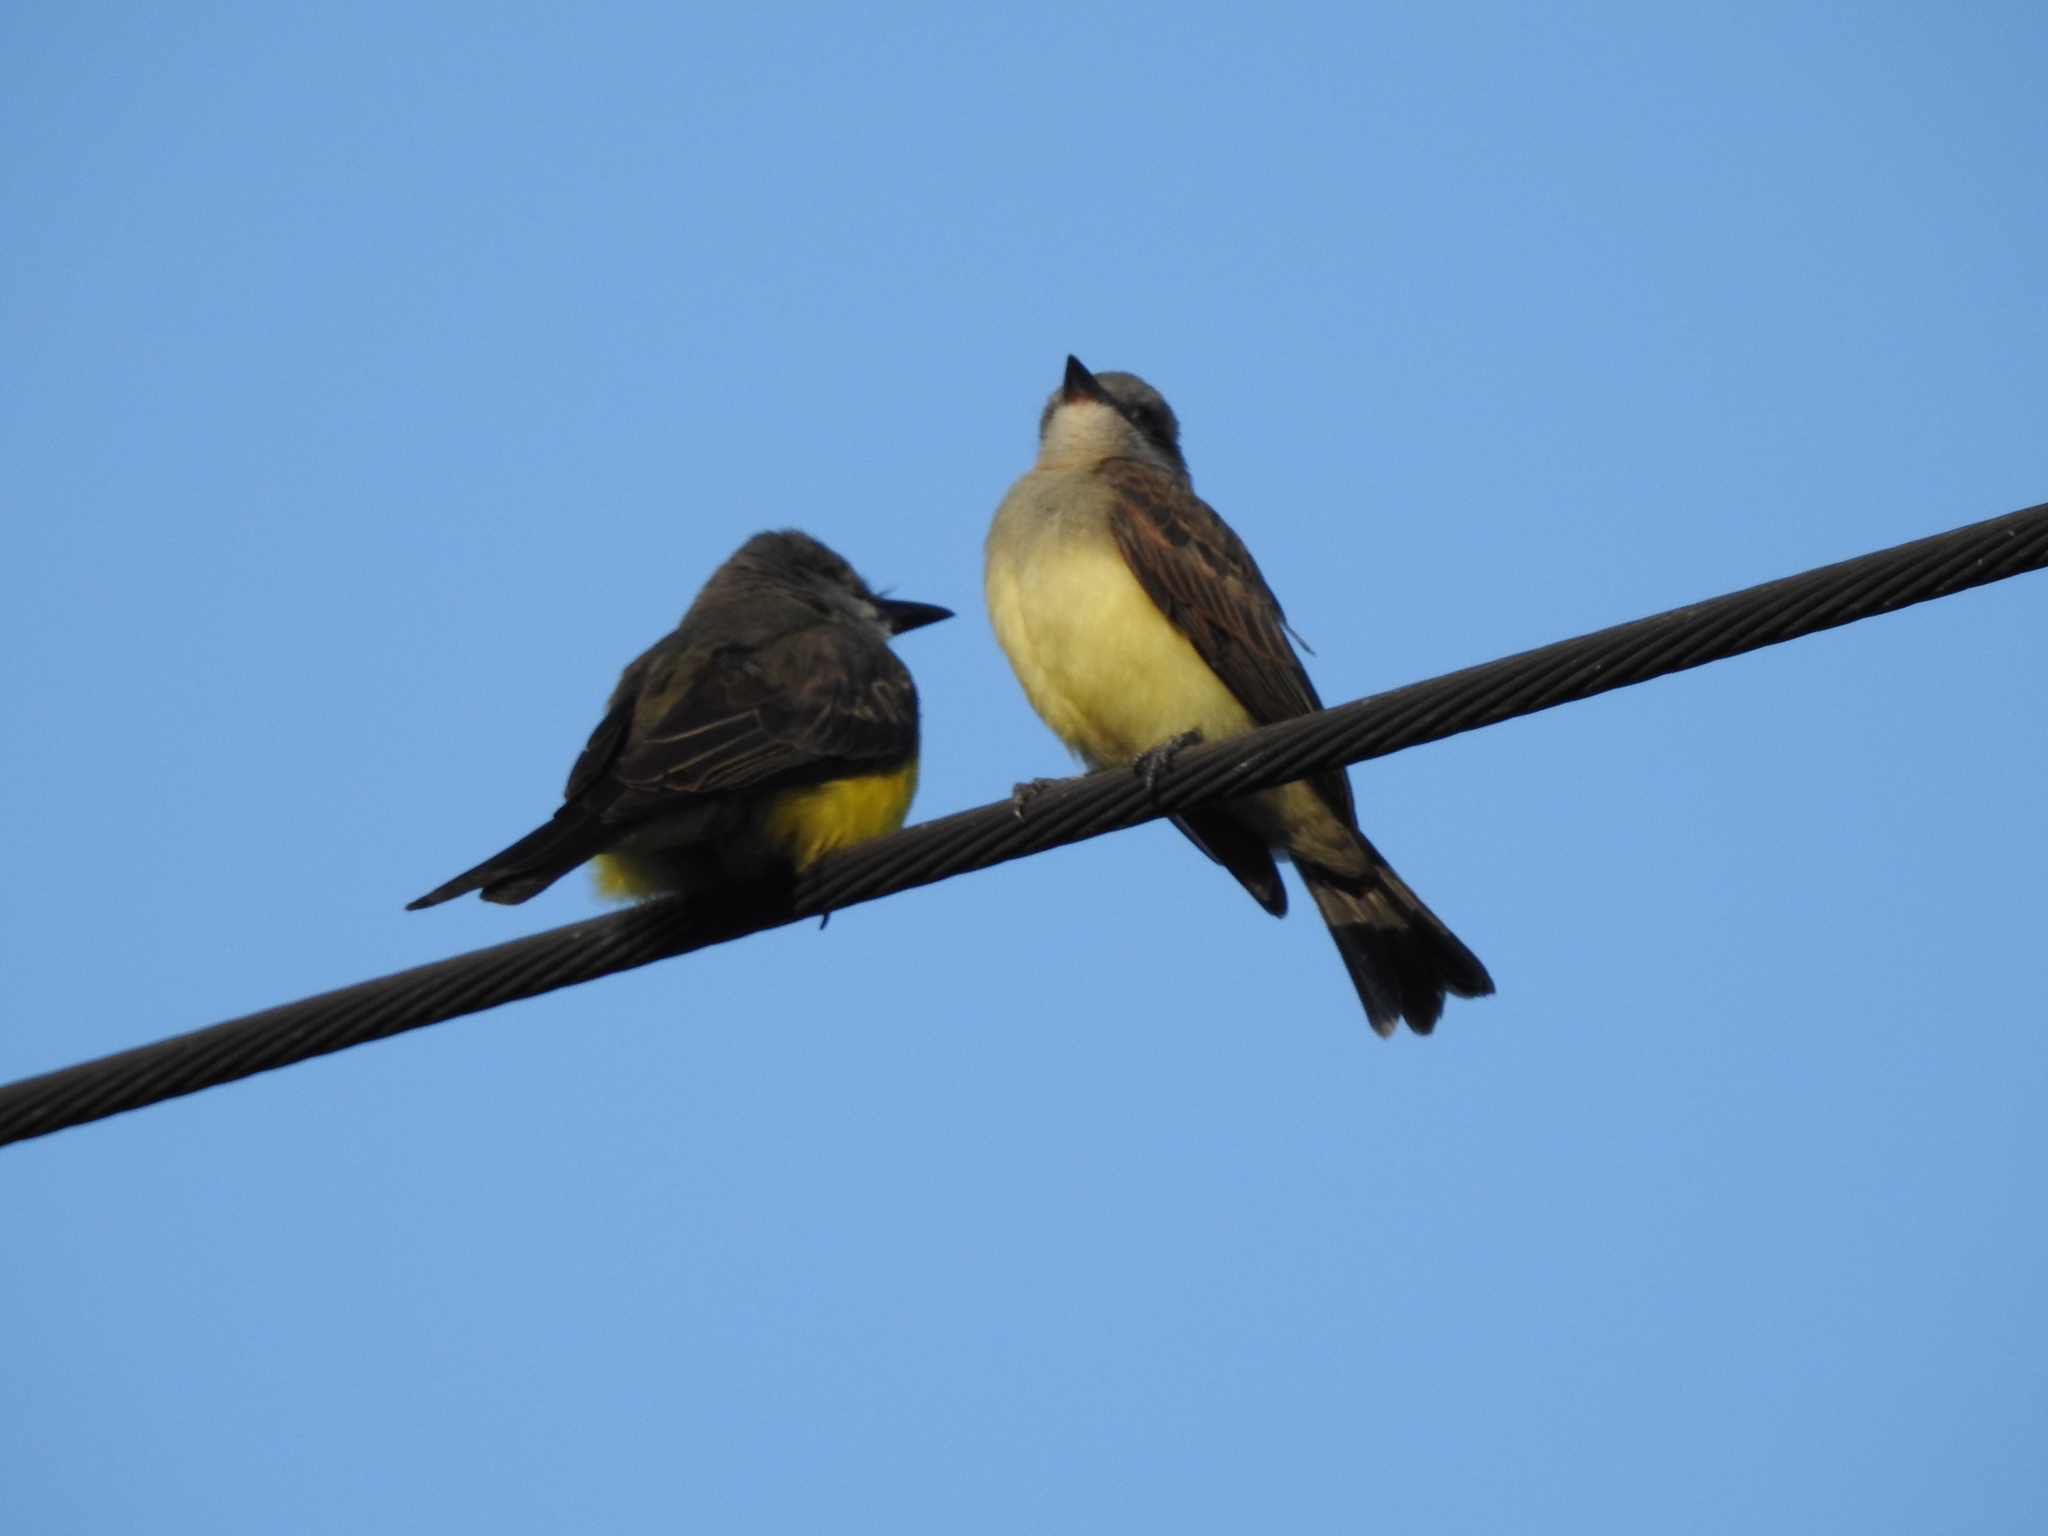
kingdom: Animalia
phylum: Chordata
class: Aves
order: Passeriformes
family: Tyrannidae
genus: Tyrannus
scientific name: Tyrannus melancholicus
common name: Tropical kingbird
